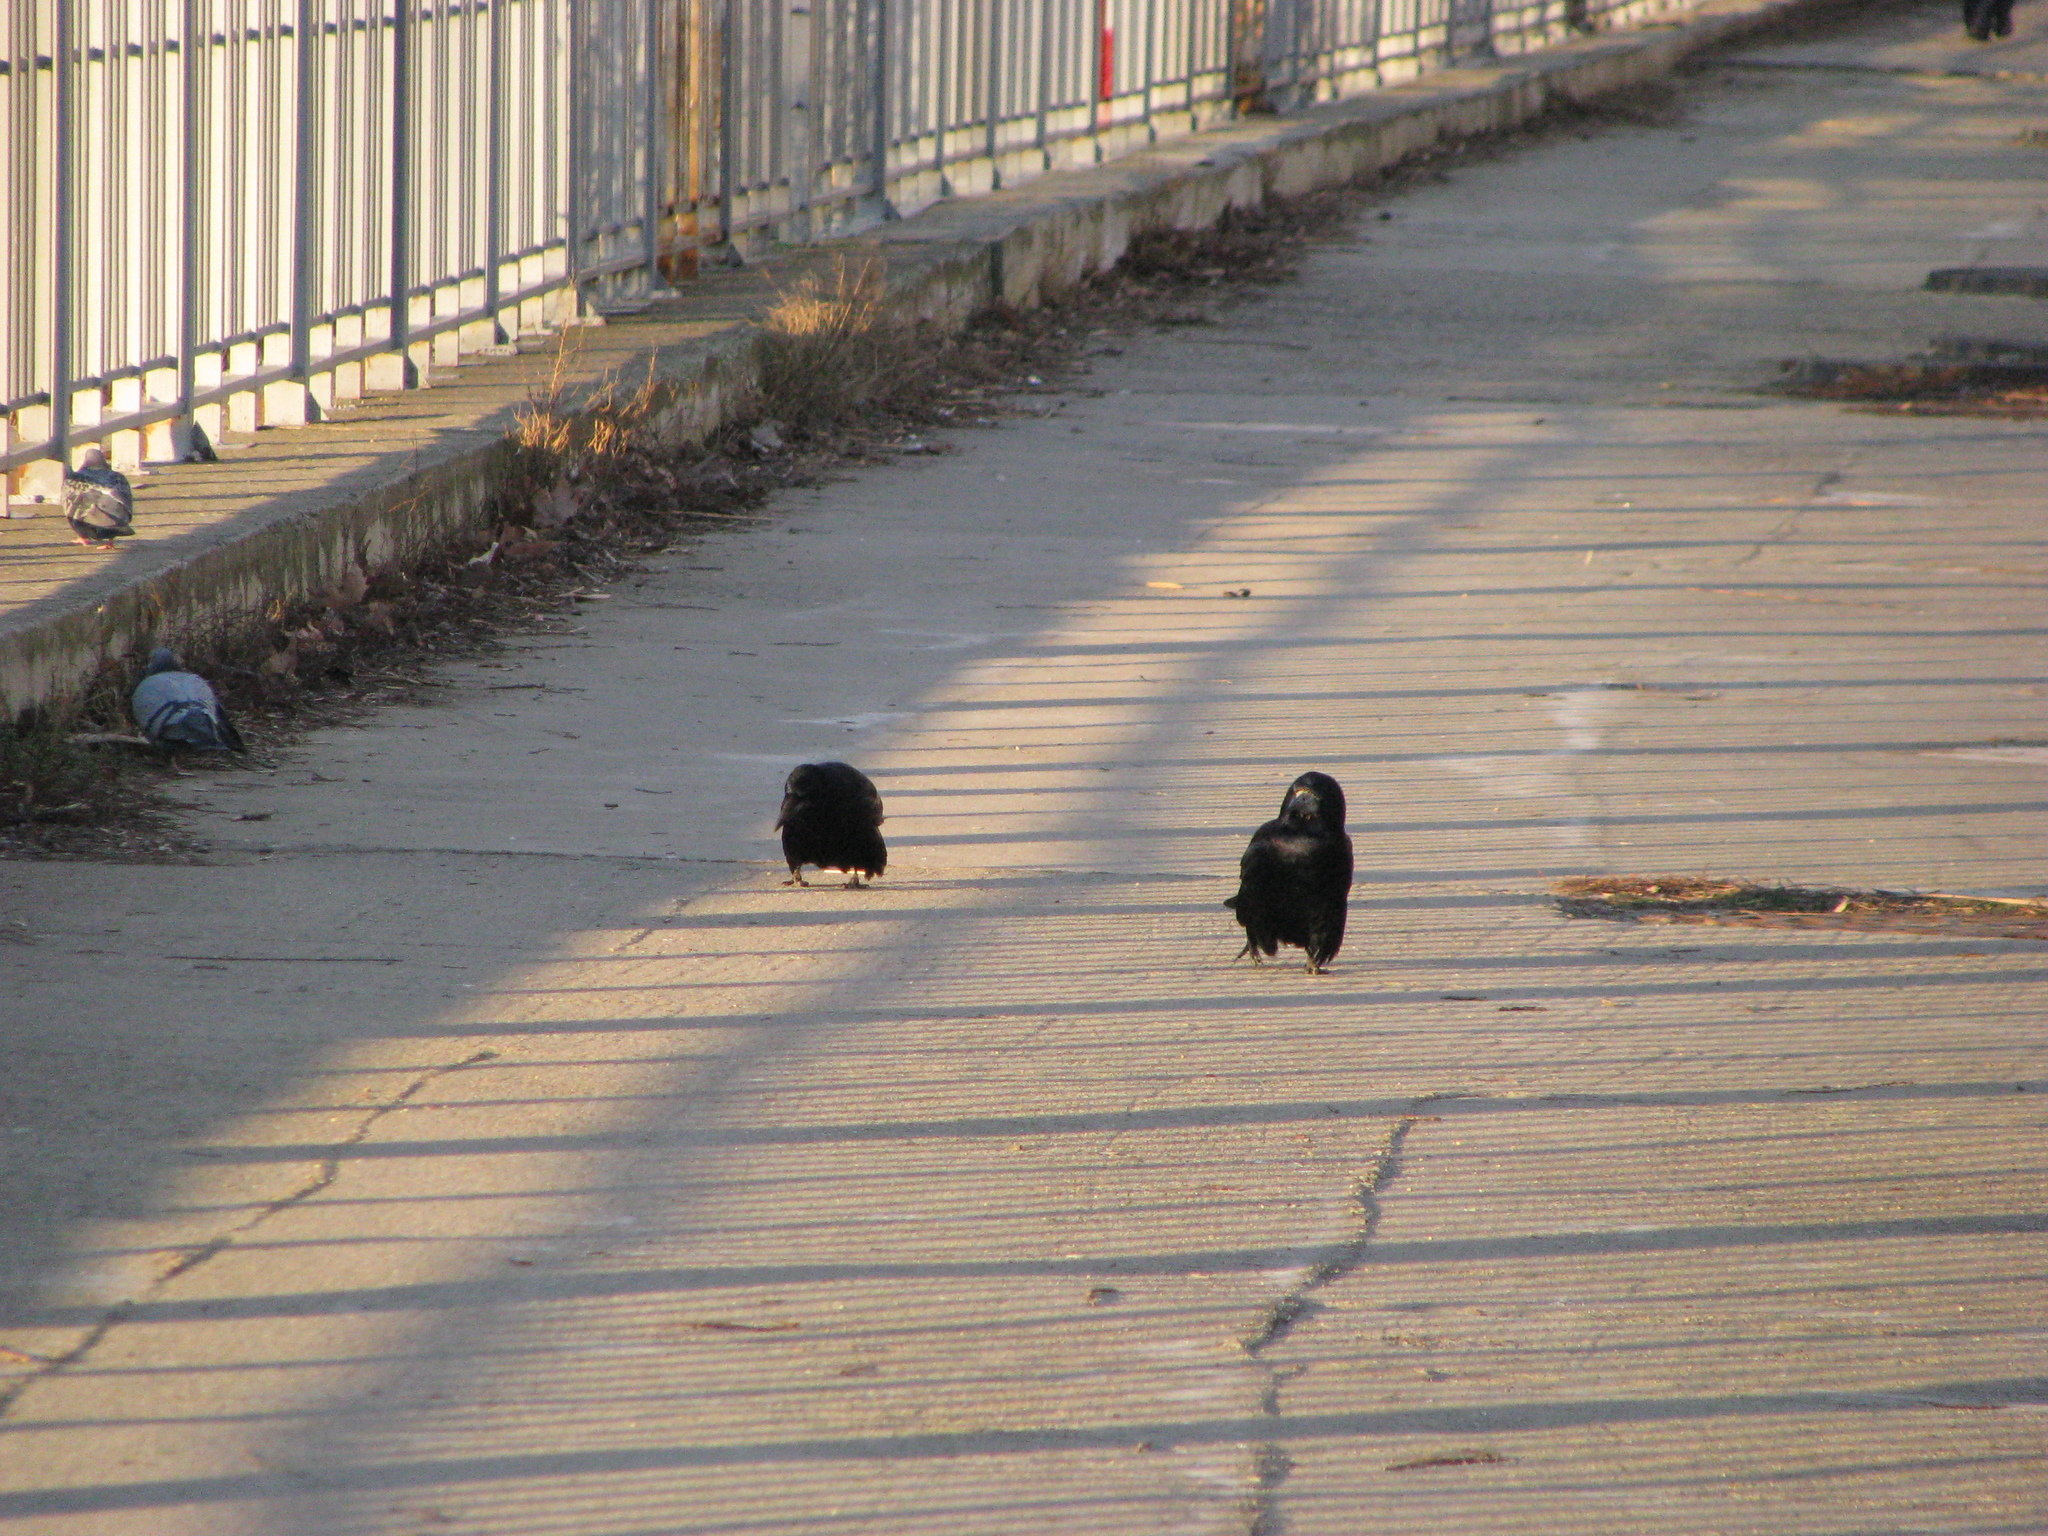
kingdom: Animalia
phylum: Chordata
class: Aves
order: Passeriformes
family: Corvidae
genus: Corvus
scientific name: Corvus frugilegus
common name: Rook
